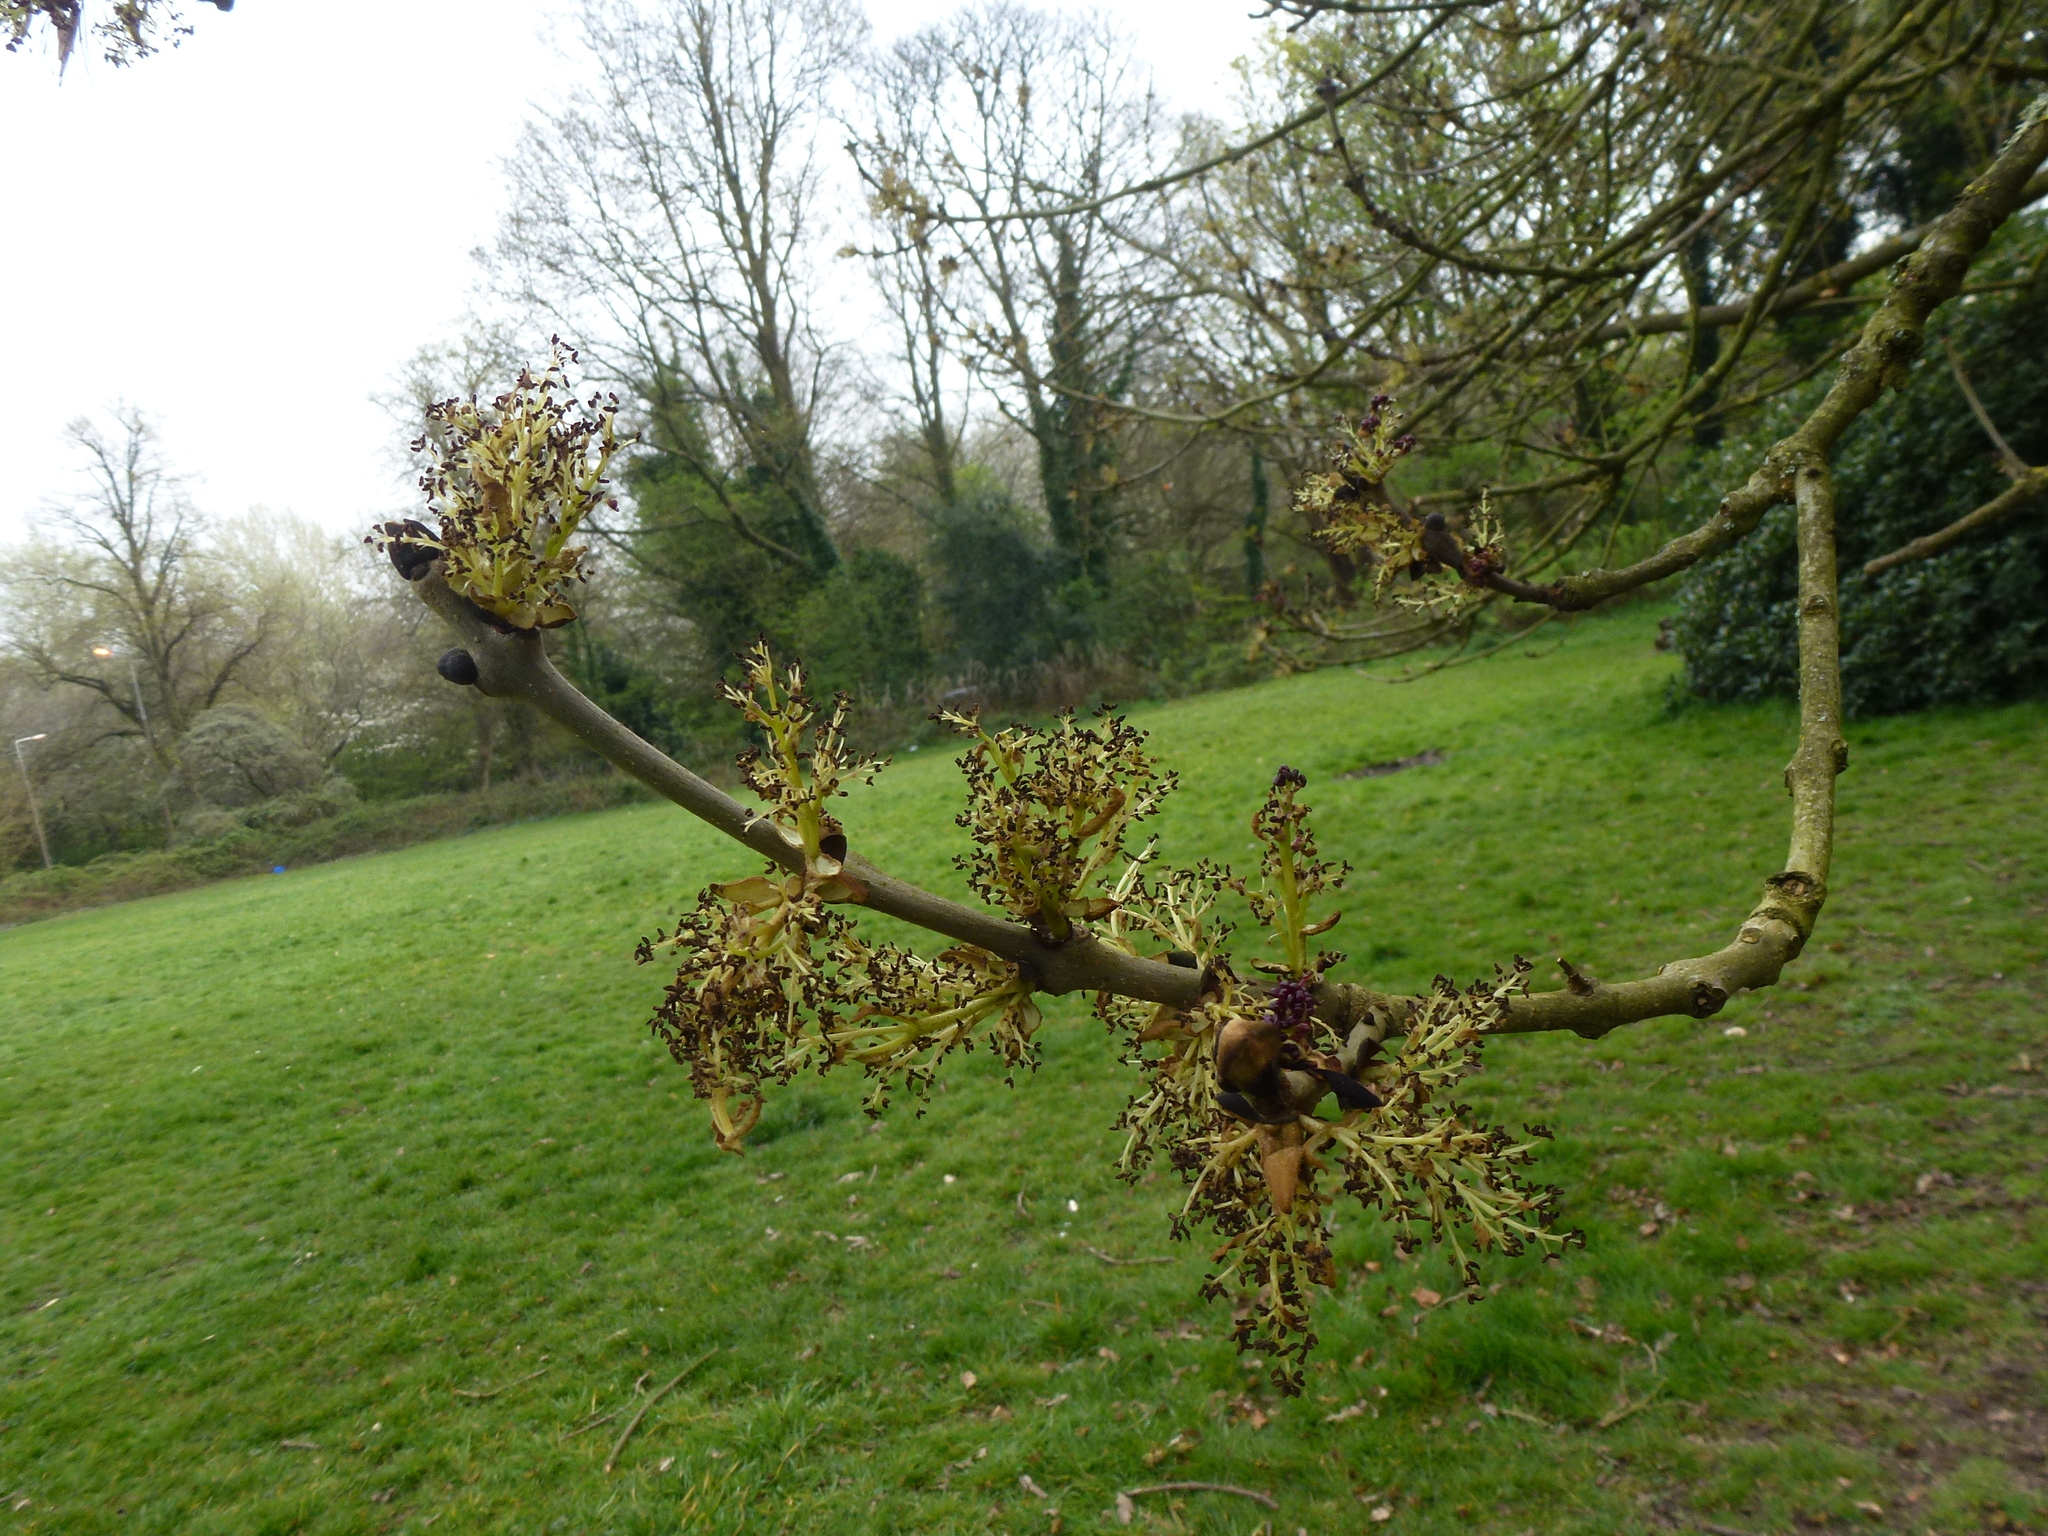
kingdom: Plantae
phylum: Tracheophyta
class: Magnoliopsida
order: Lamiales
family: Oleaceae
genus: Fraxinus
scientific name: Fraxinus excelsior
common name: European ash
